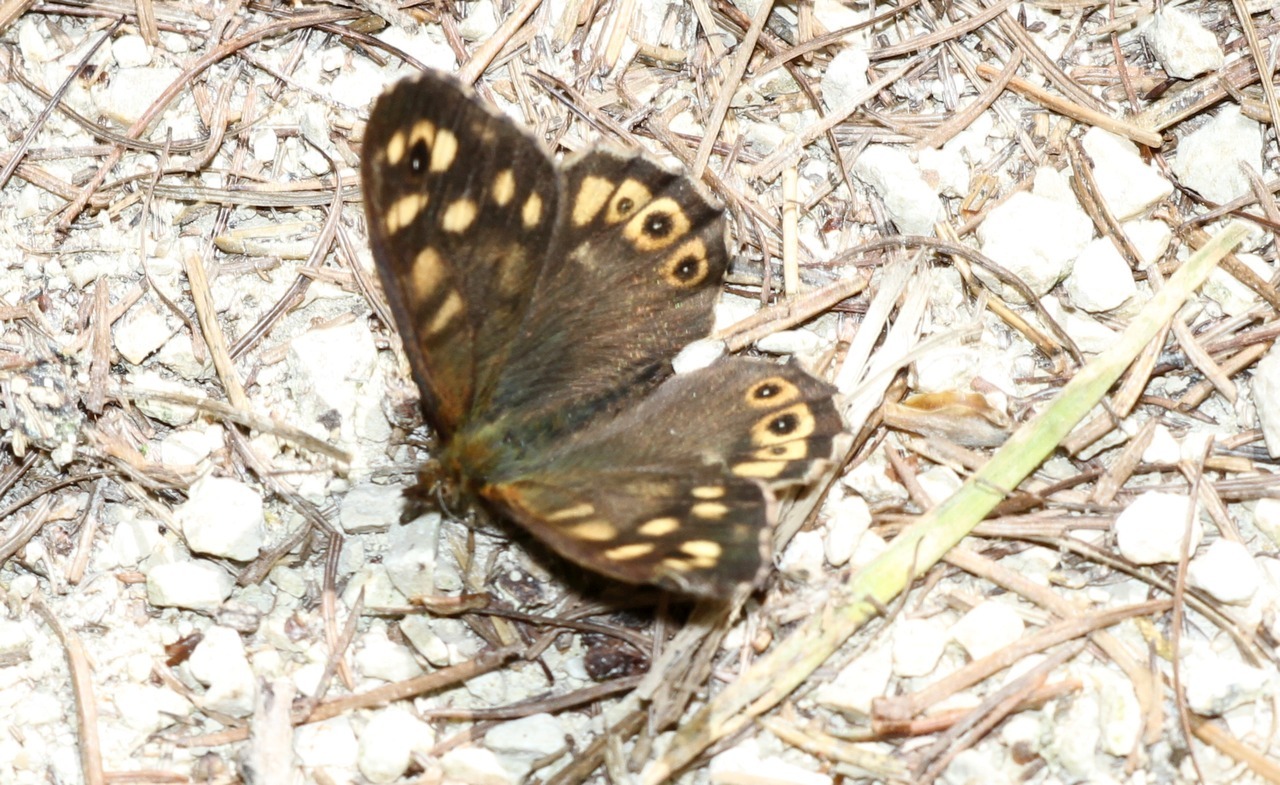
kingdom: Animalia
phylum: Arthropoda
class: Insecta
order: Lepidoptera
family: Nymphalidae
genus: Pararge
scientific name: Pararge aegeria
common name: Speckled wood
